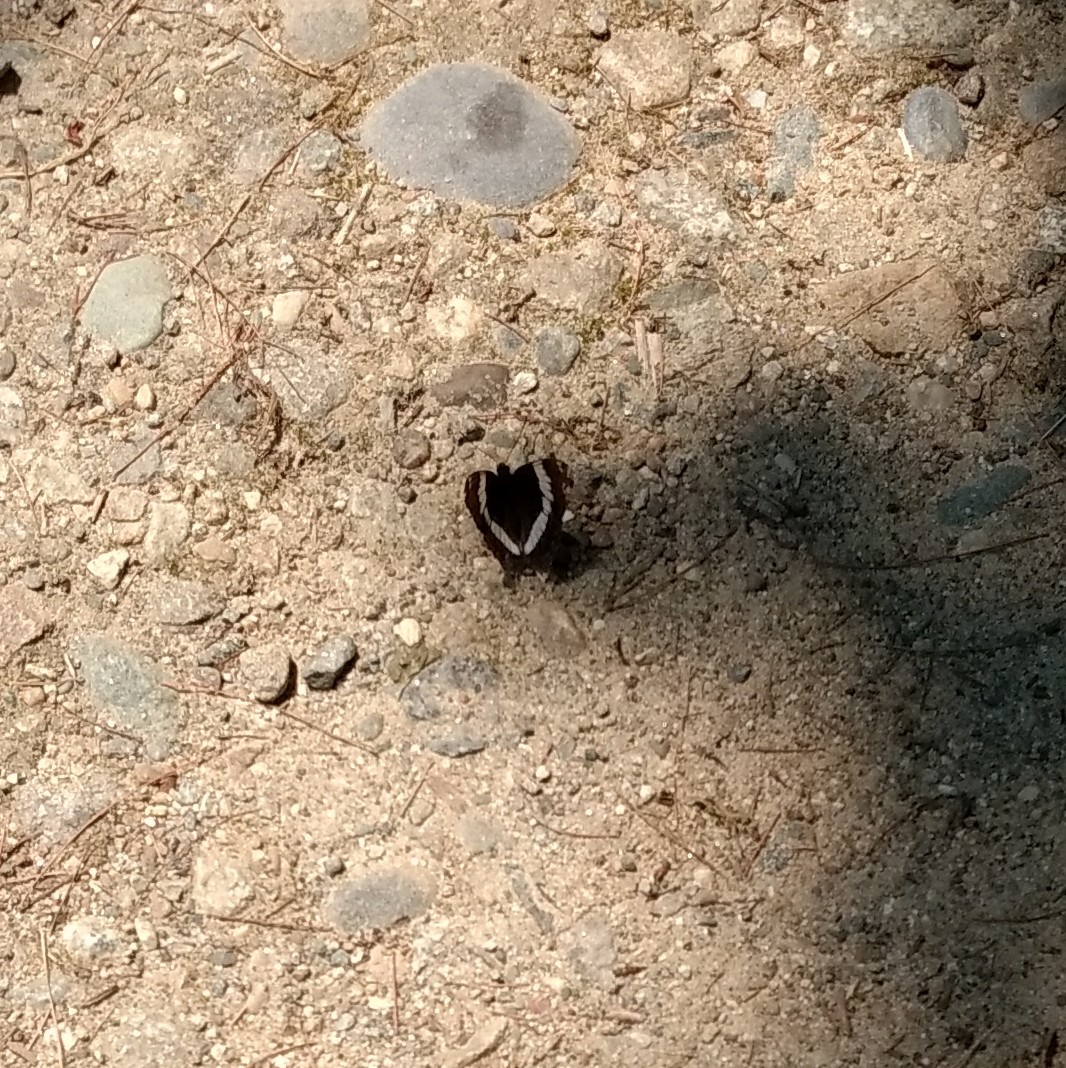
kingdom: Animalia
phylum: Arthropoda
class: Insecta
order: Lepidoptera
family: Nymphalidae
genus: Limenitis
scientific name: Limenitis arthemis
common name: Red-spotted admiral
